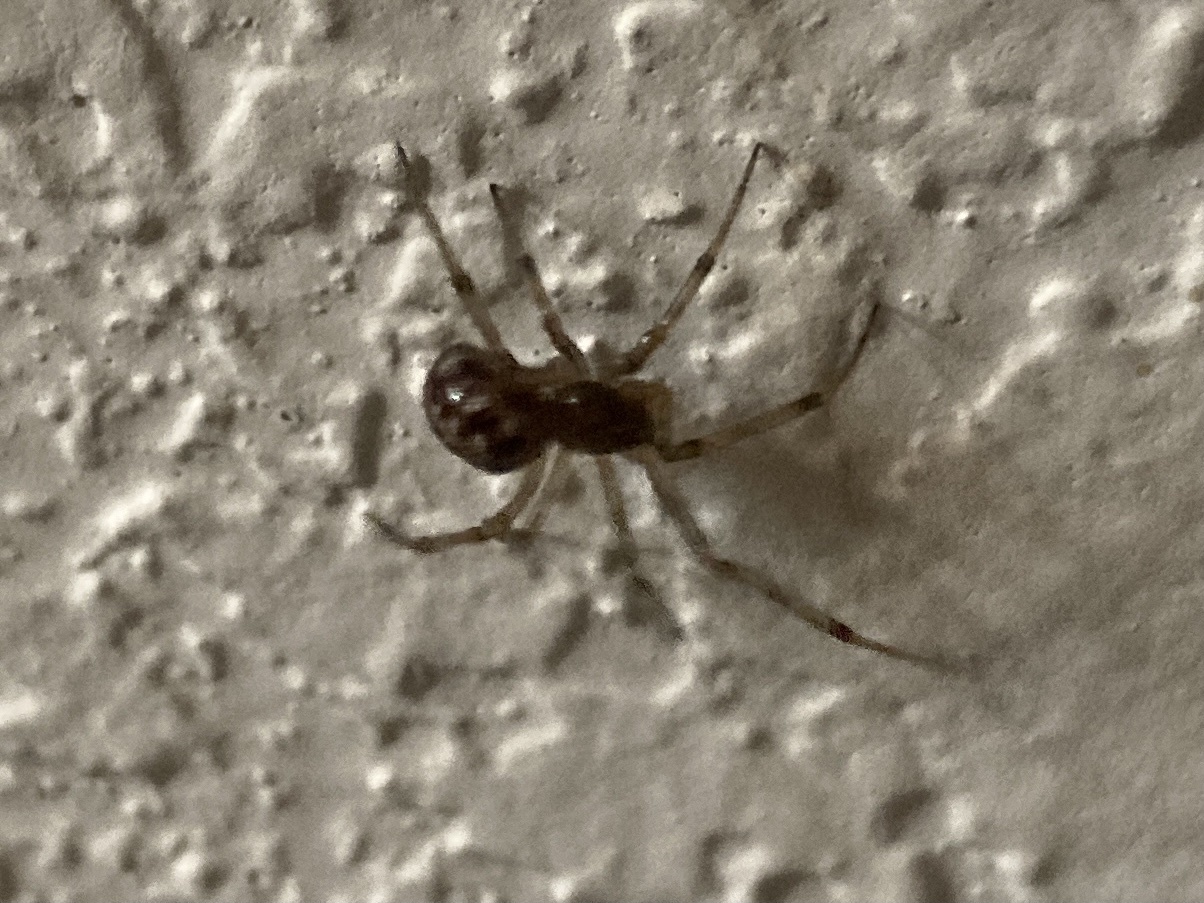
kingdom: Animalia
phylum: Arthropoda
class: Arachnida
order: Araneae
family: Theridiidae
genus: Steatoda
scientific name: Steatoda triangulosa
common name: Triangulate bud spider
